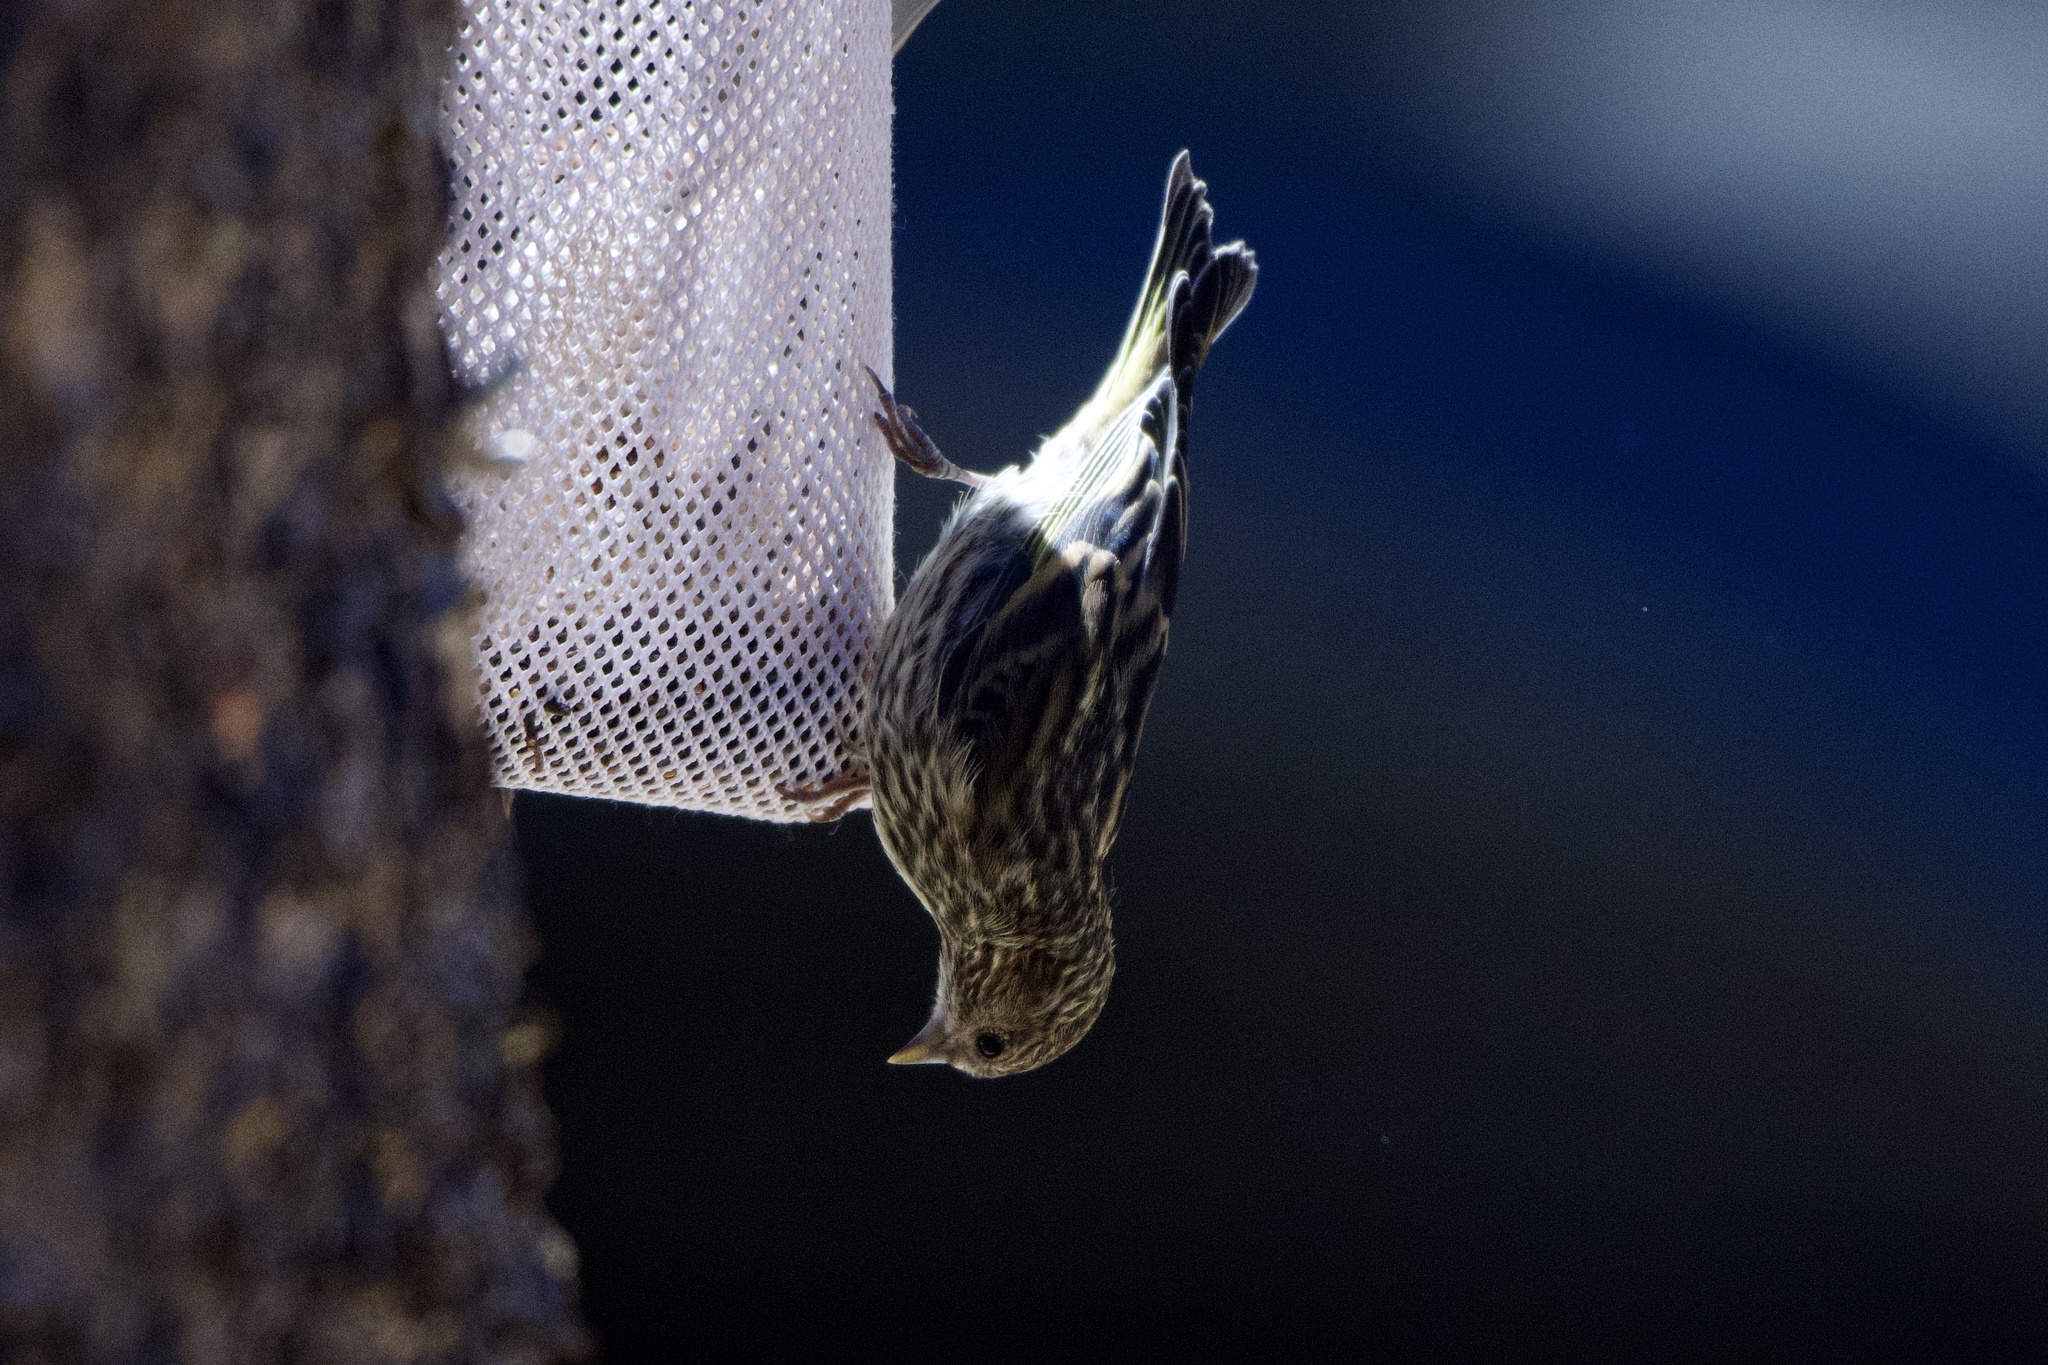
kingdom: Animalia
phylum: Chordata
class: Aves
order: Passeriformes
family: Fringillidae
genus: Spinus
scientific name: Spinus pinus
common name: Pine siskin
